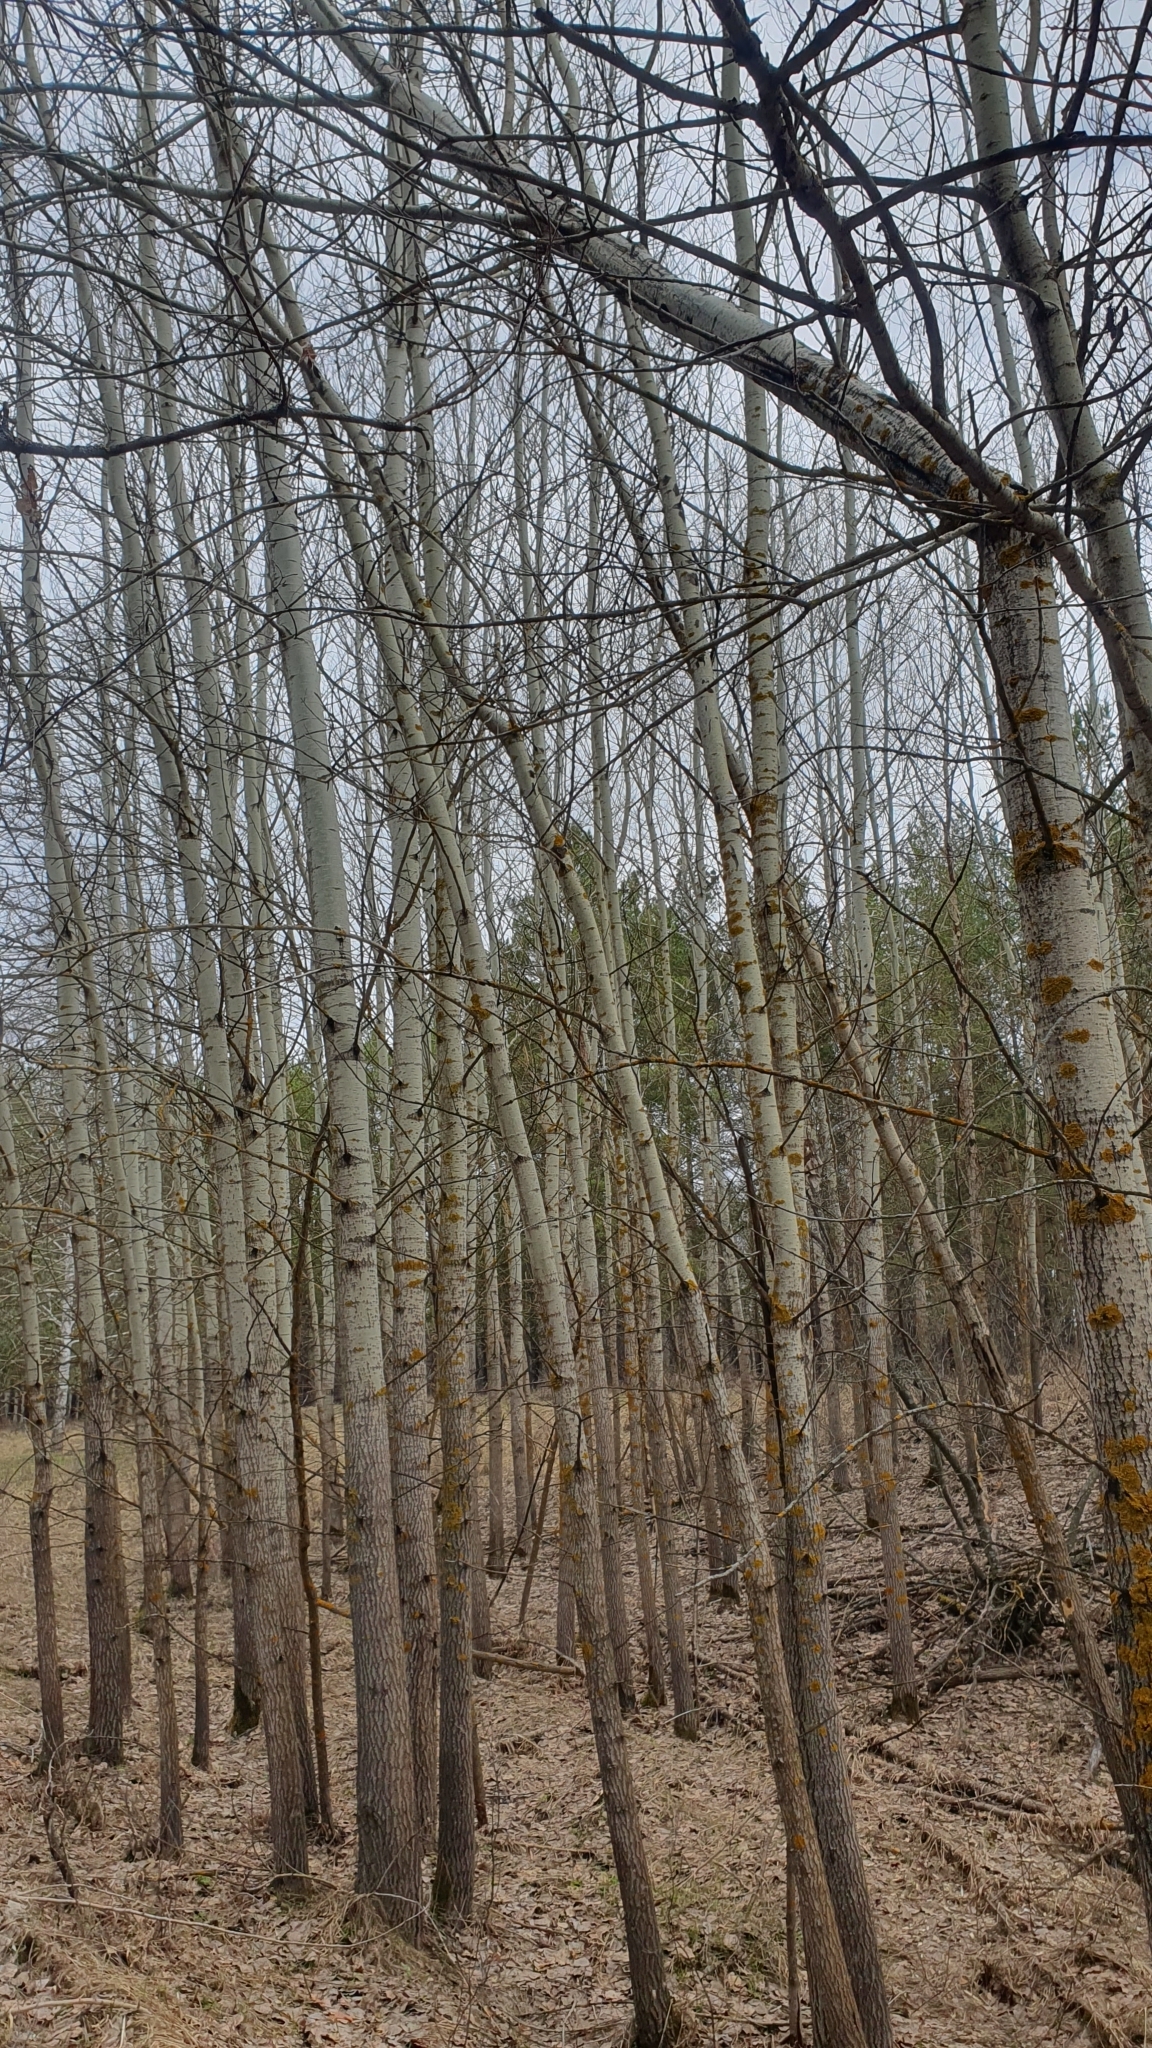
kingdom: Plantae
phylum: Tracheophyta
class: Magnoliopsida
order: Malpighiales
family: Salicaceae
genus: Populus
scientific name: Populus tremula
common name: European aspen
